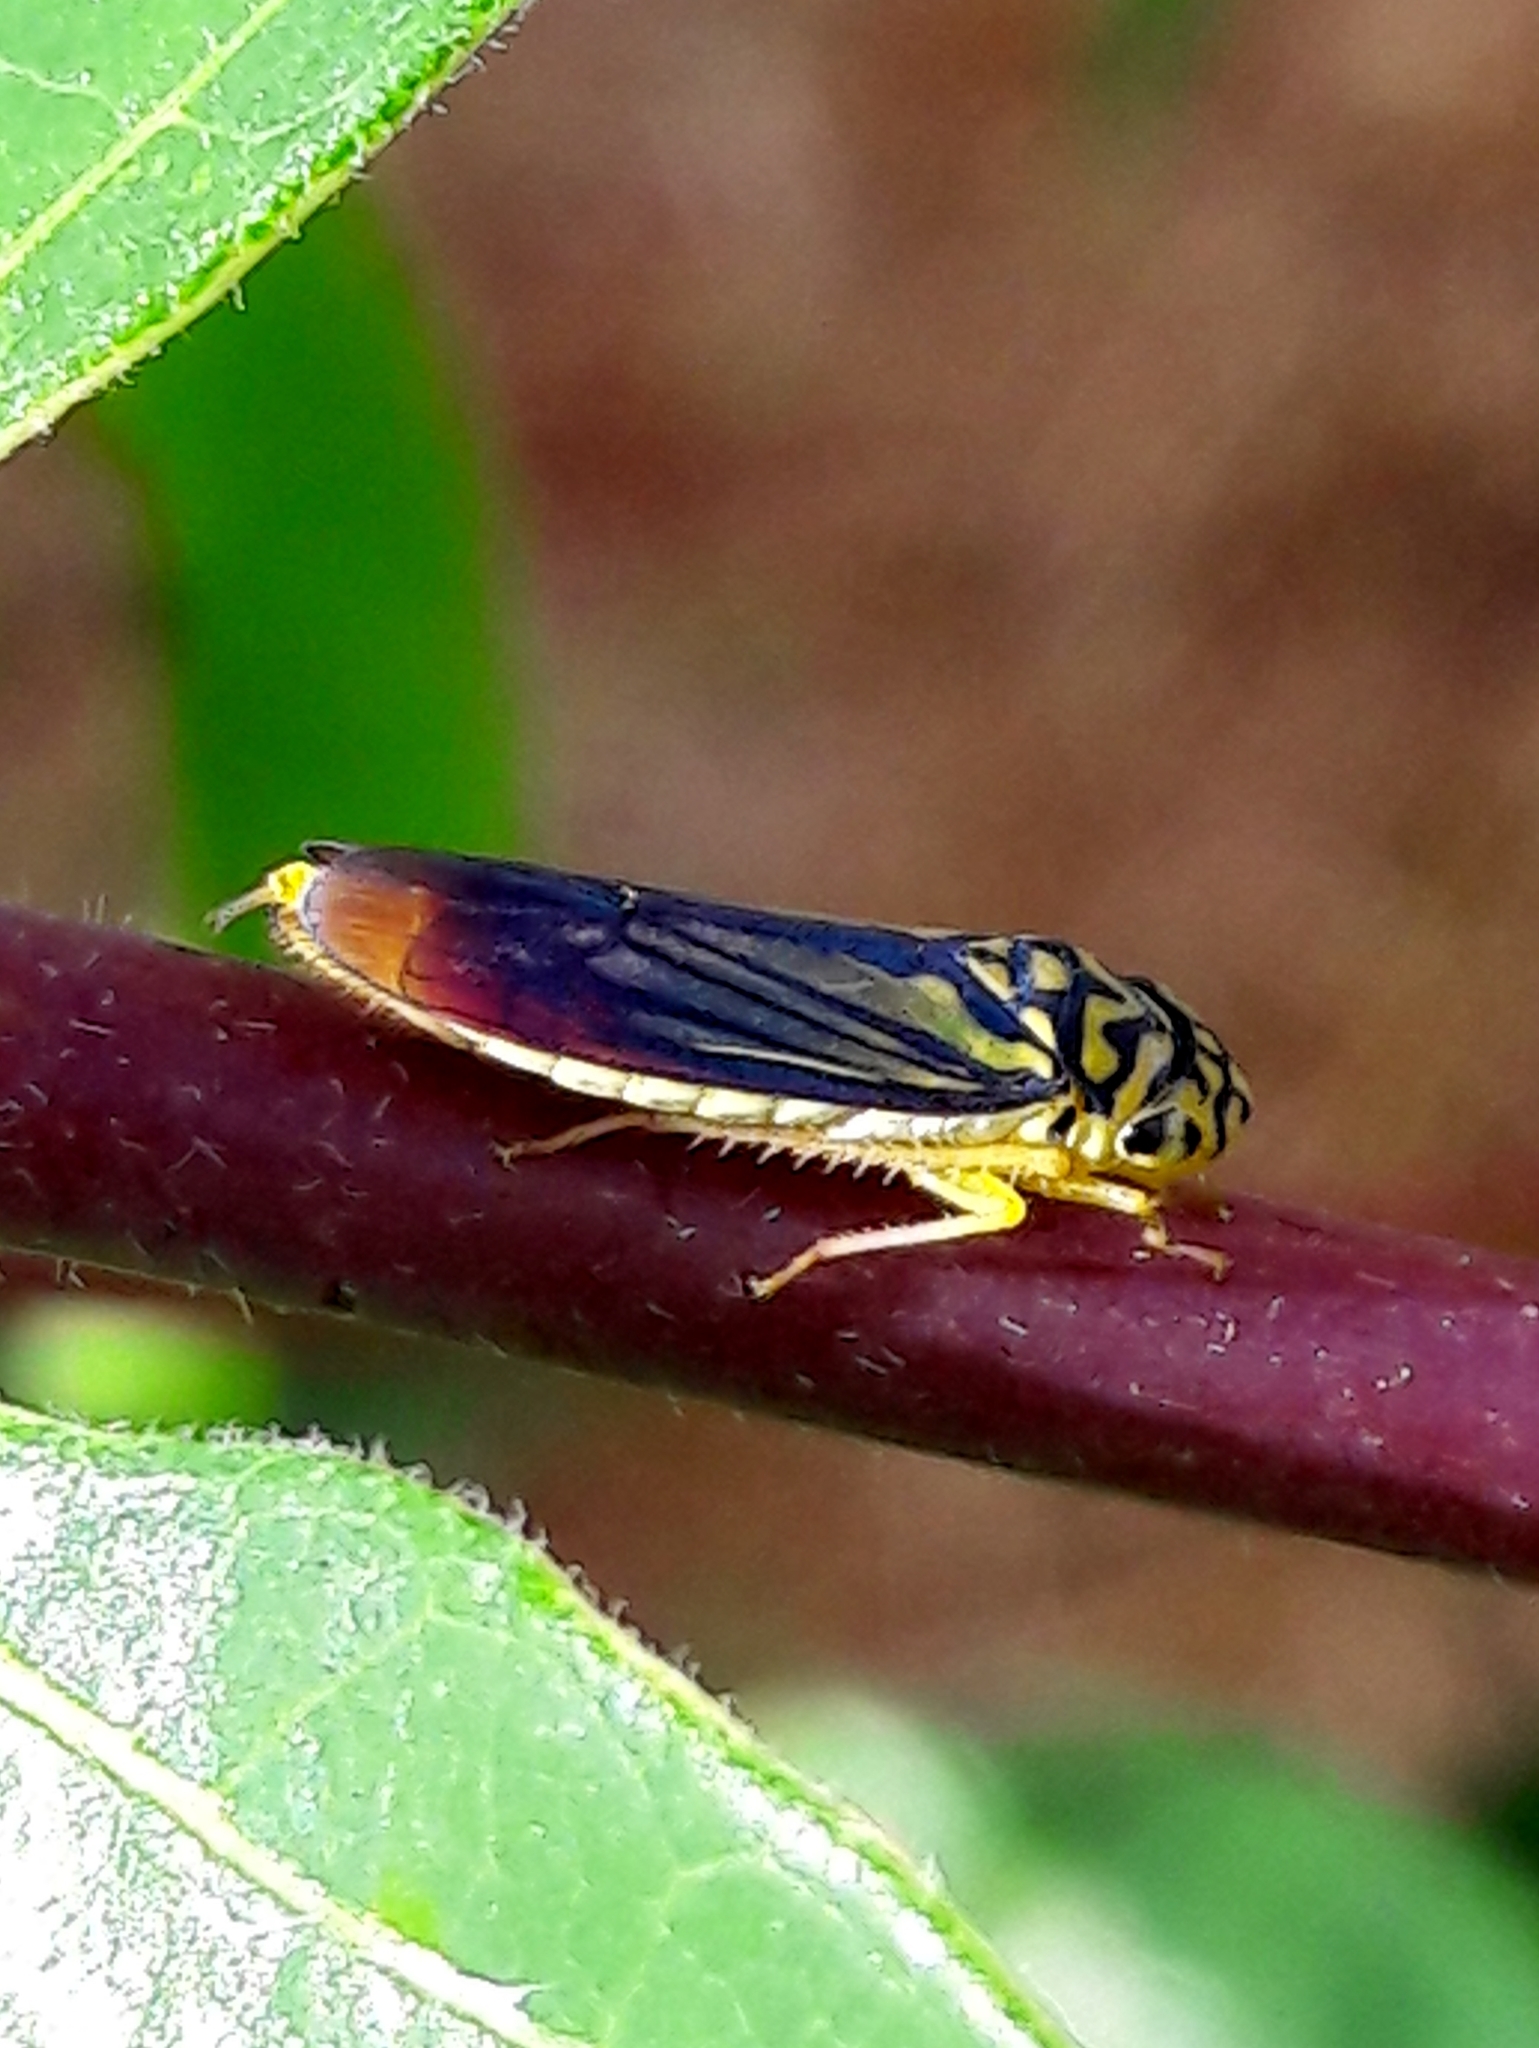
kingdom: Animalia
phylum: Arthropoda
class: Insecta
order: Hemiptera
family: Cicadellidae
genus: Dilobopterus
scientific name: Dilobopterus costalimai
